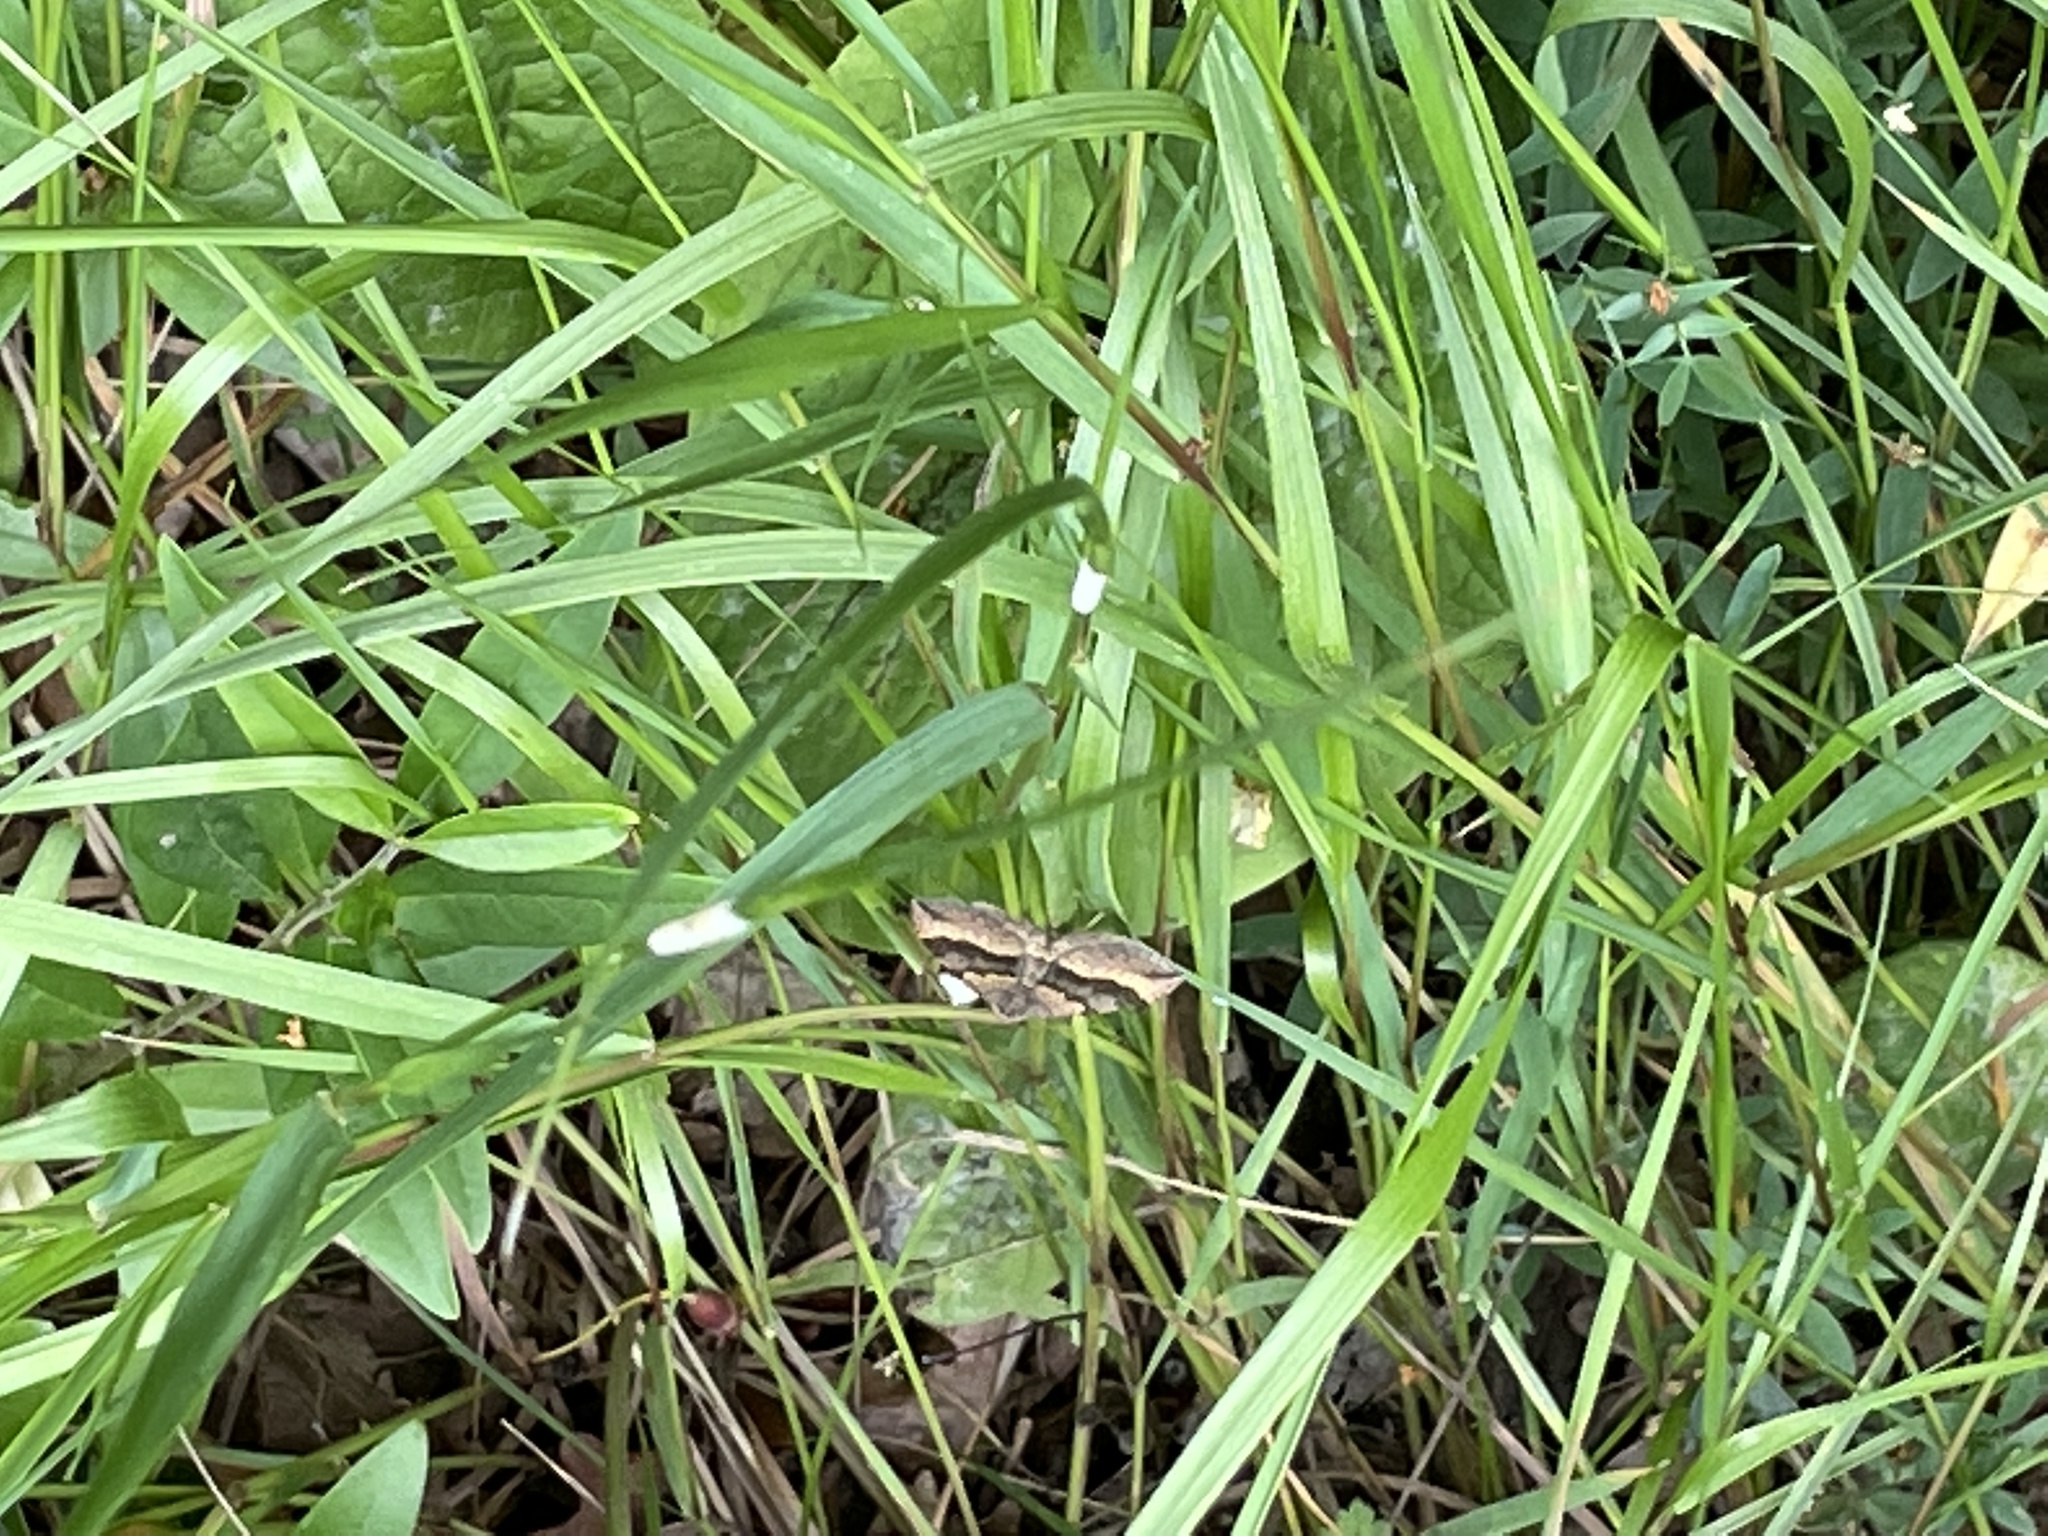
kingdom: Animalia
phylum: Arthropoda
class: Insecta
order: Lepidoptera
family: Geometridae
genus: Scotopteryx
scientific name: Scotopteryx chenopodiata
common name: Shaded broad-bar
